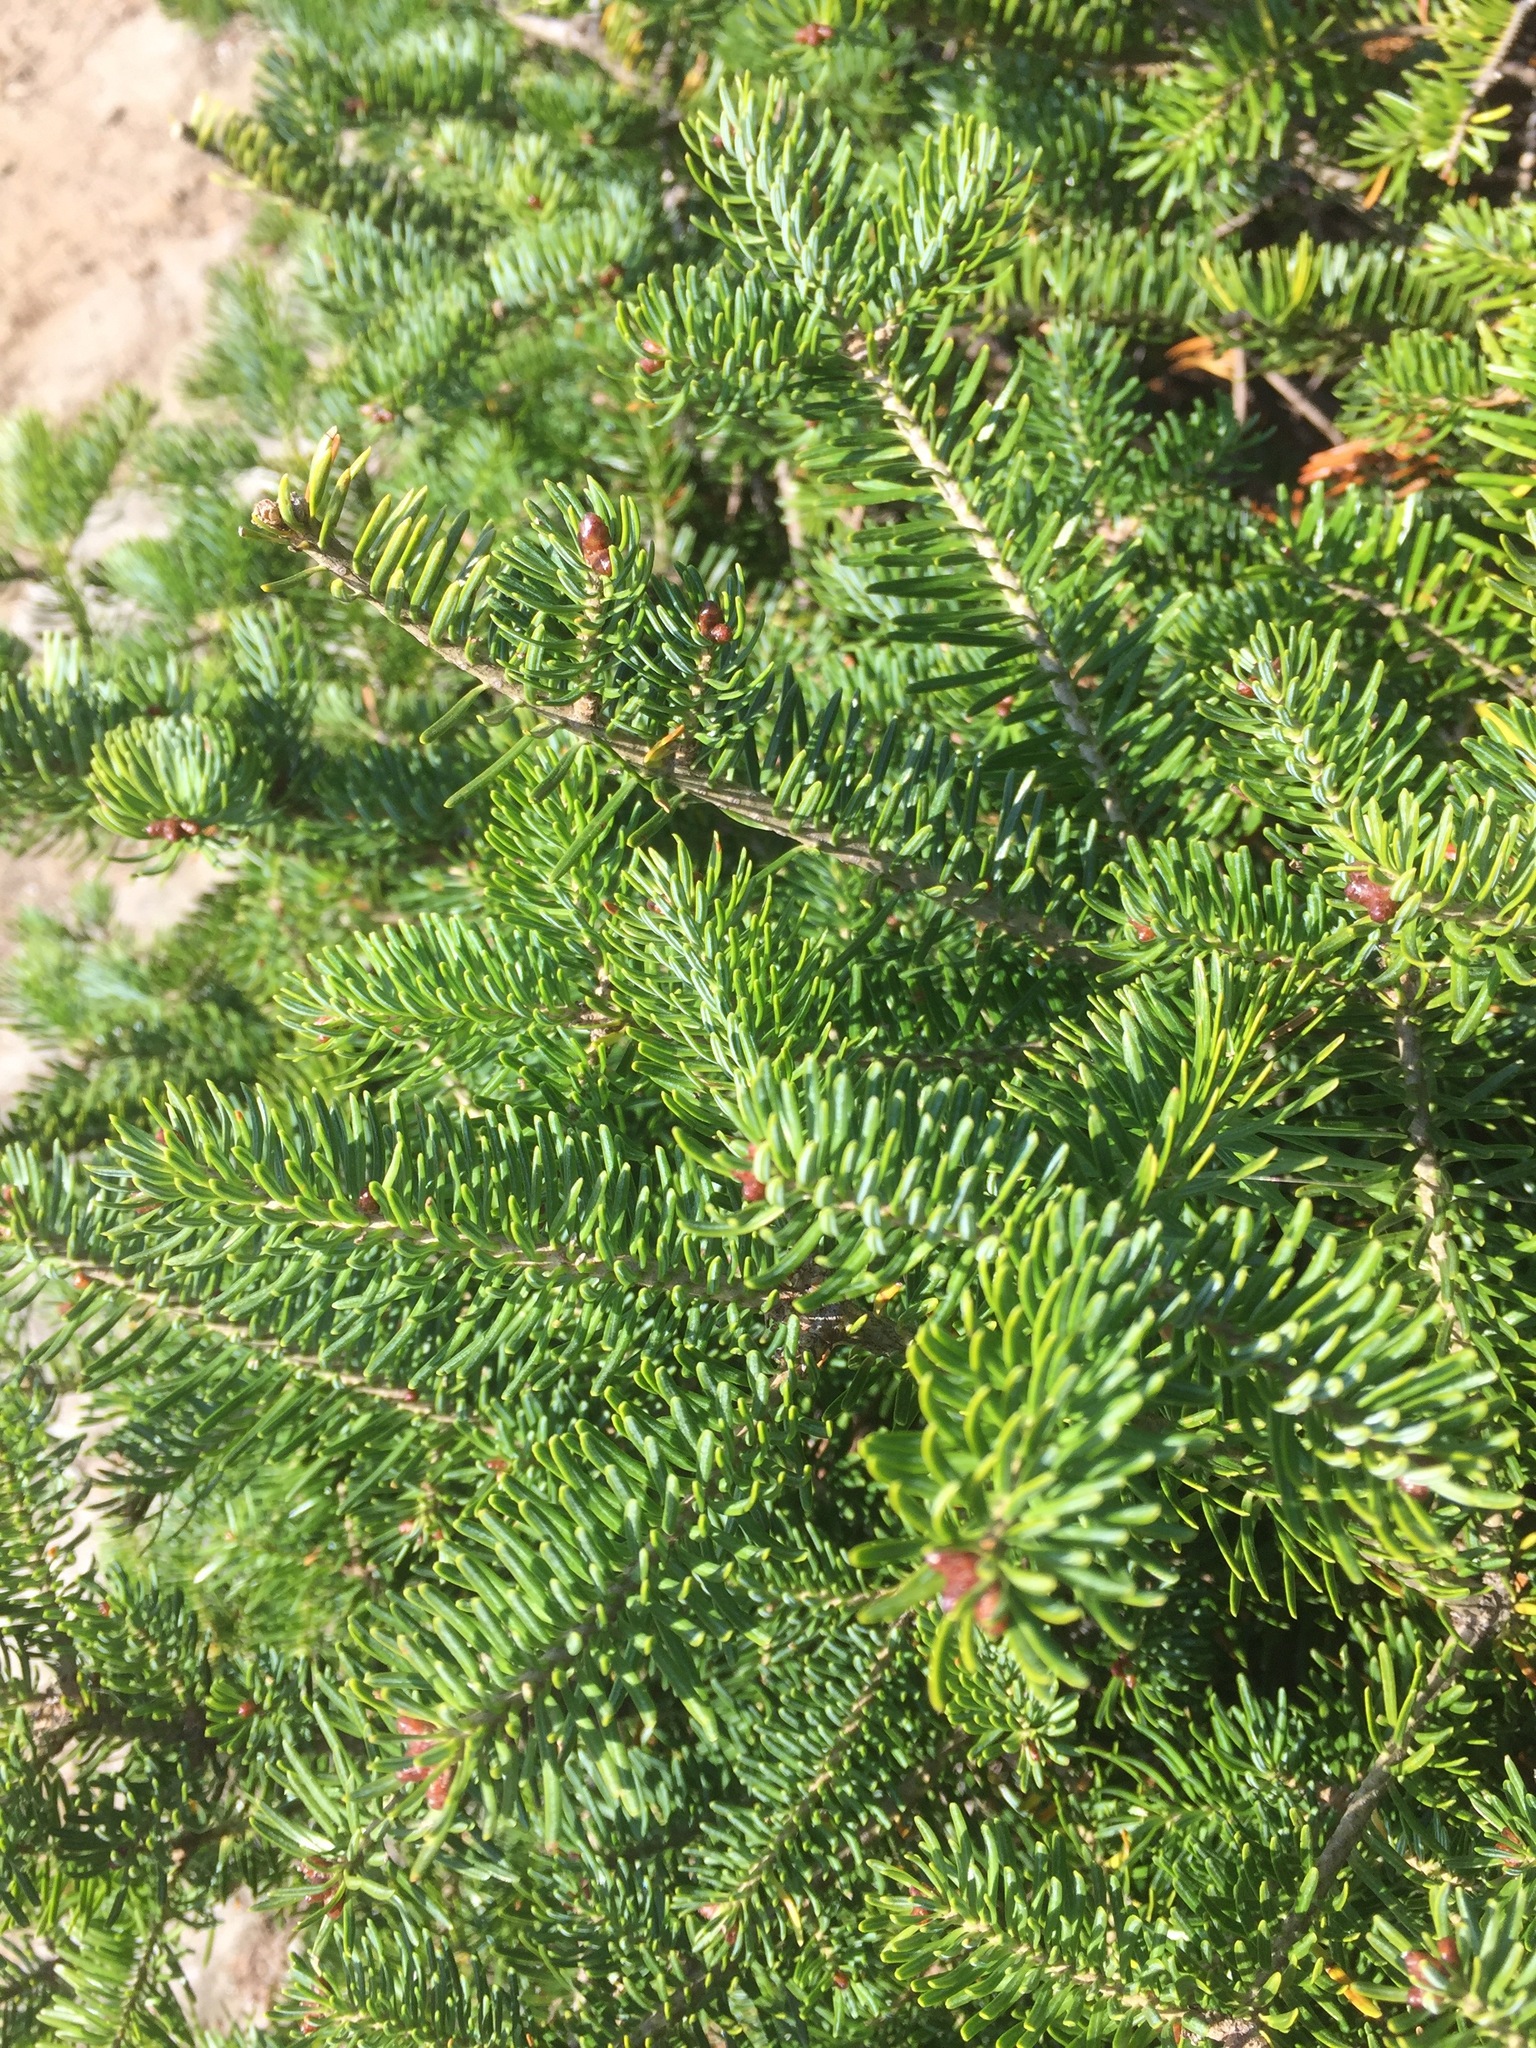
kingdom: Plantae
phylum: Tracheophyta
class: Pinopsida
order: Pinales
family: Pinaceae
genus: Abies
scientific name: Abies balsamea
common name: Balsam fir
